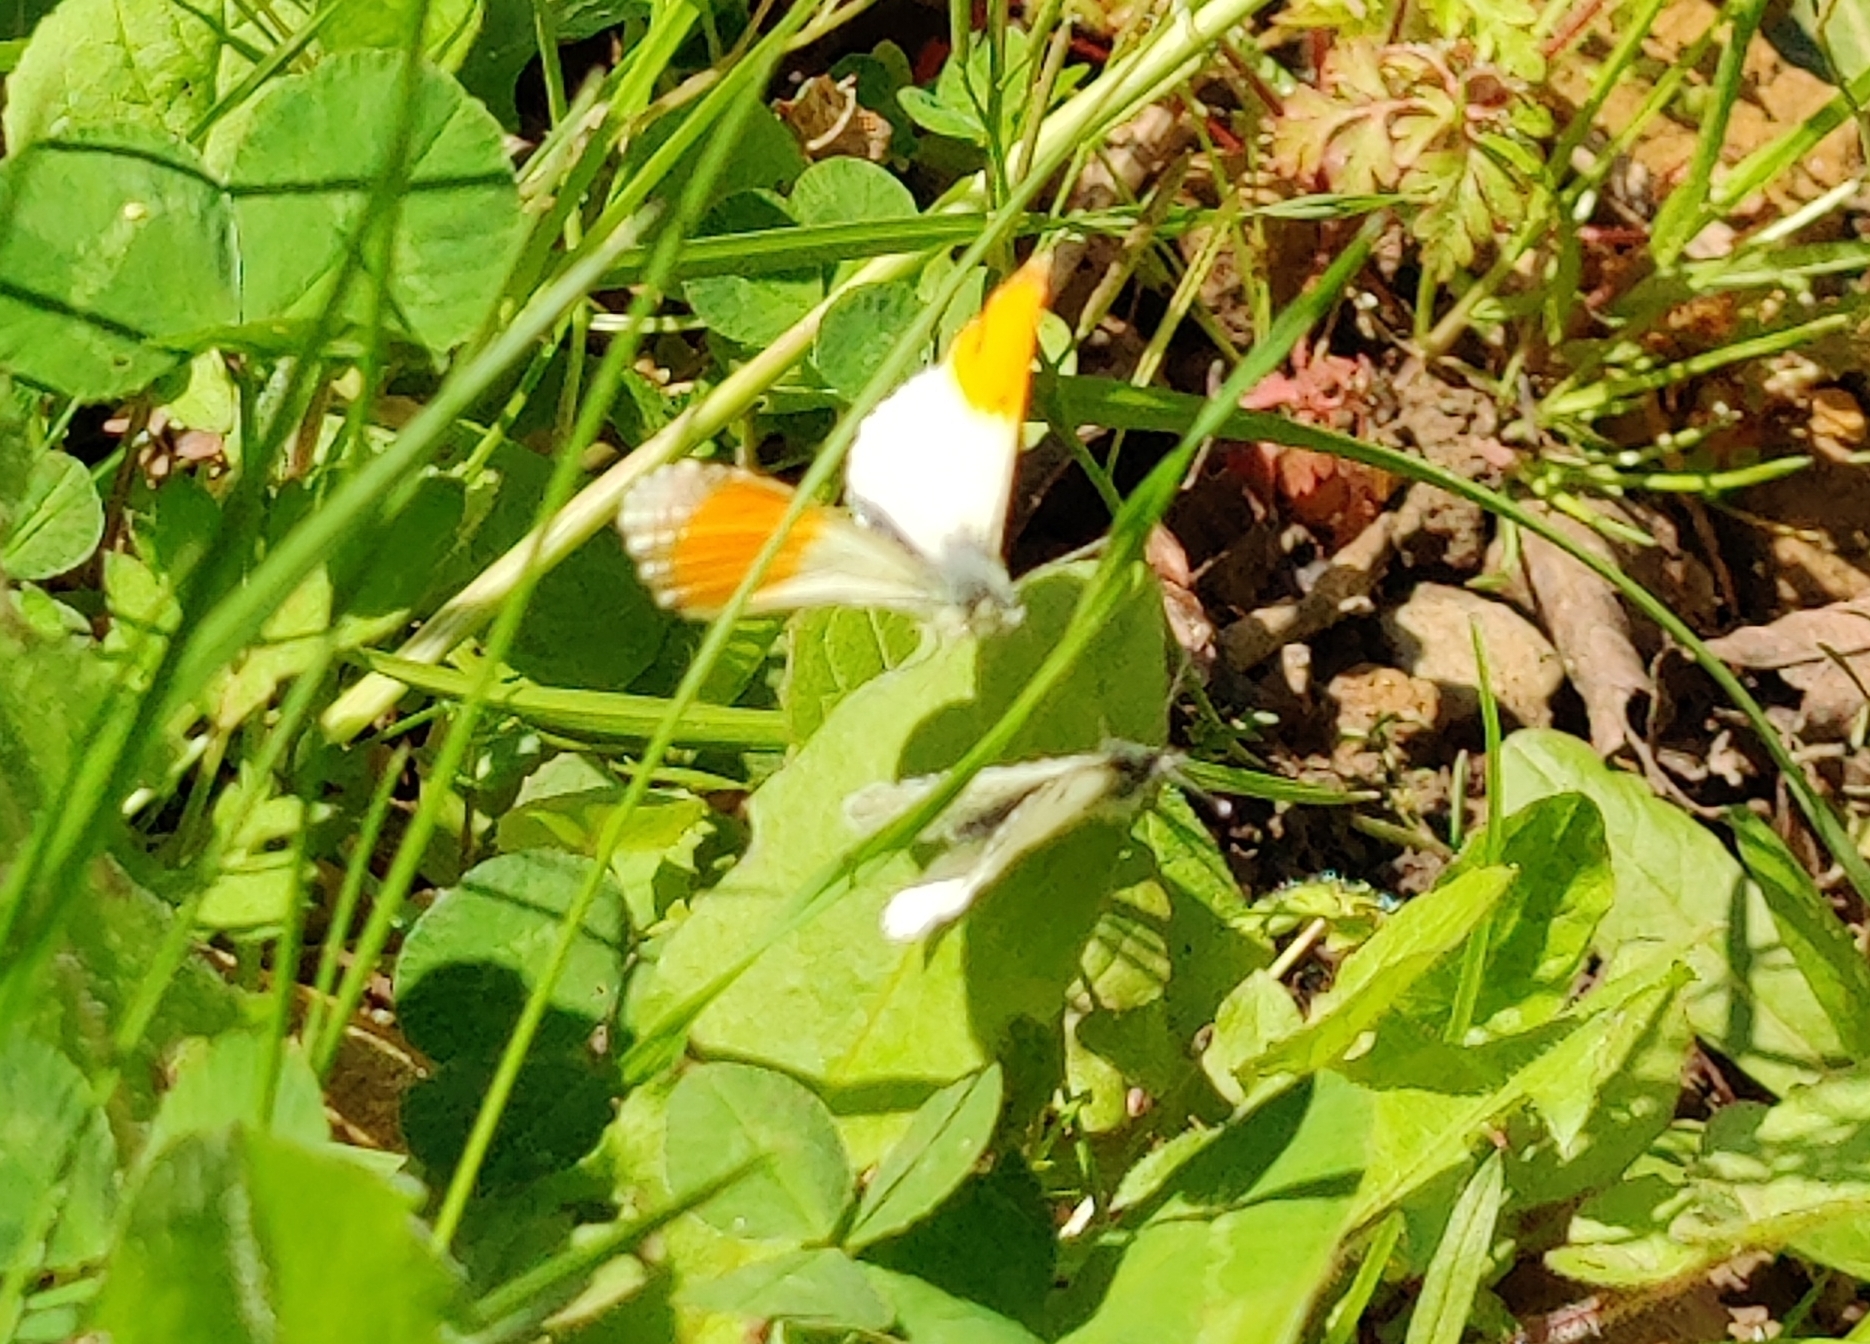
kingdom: Animalia
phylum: Arthropoda
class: Insecta
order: Lepidoptera
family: Pieridae
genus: Anthocharis
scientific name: Anthocharis cardamines
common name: Orange-tip
